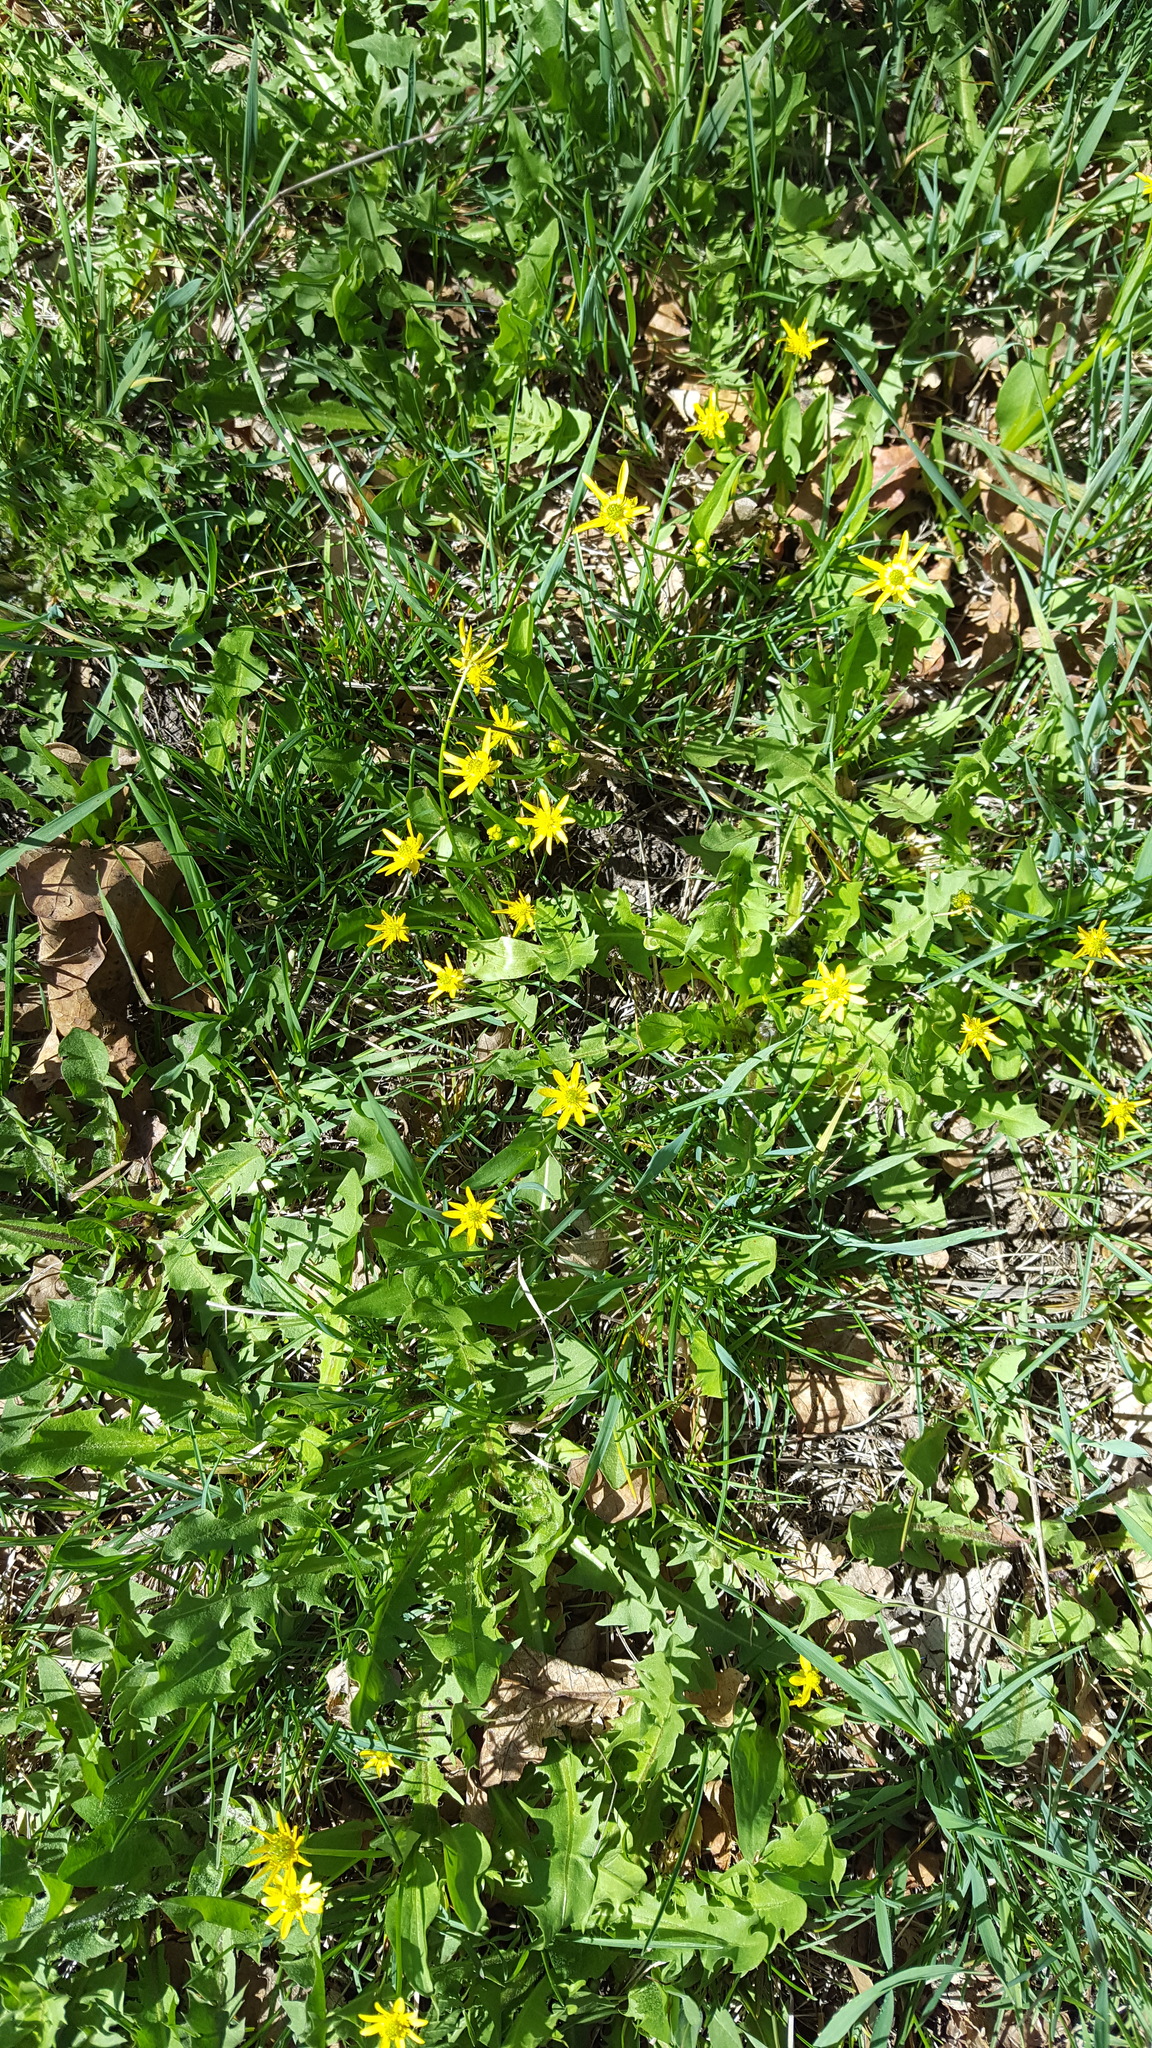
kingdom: Plantae
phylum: Tracheophyta
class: Magnoliopsida
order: Ranunculales
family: Ranunculaceae
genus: Ranunculus
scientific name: Ranunculus alismifolius
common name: Plantain-leaved buttercup
